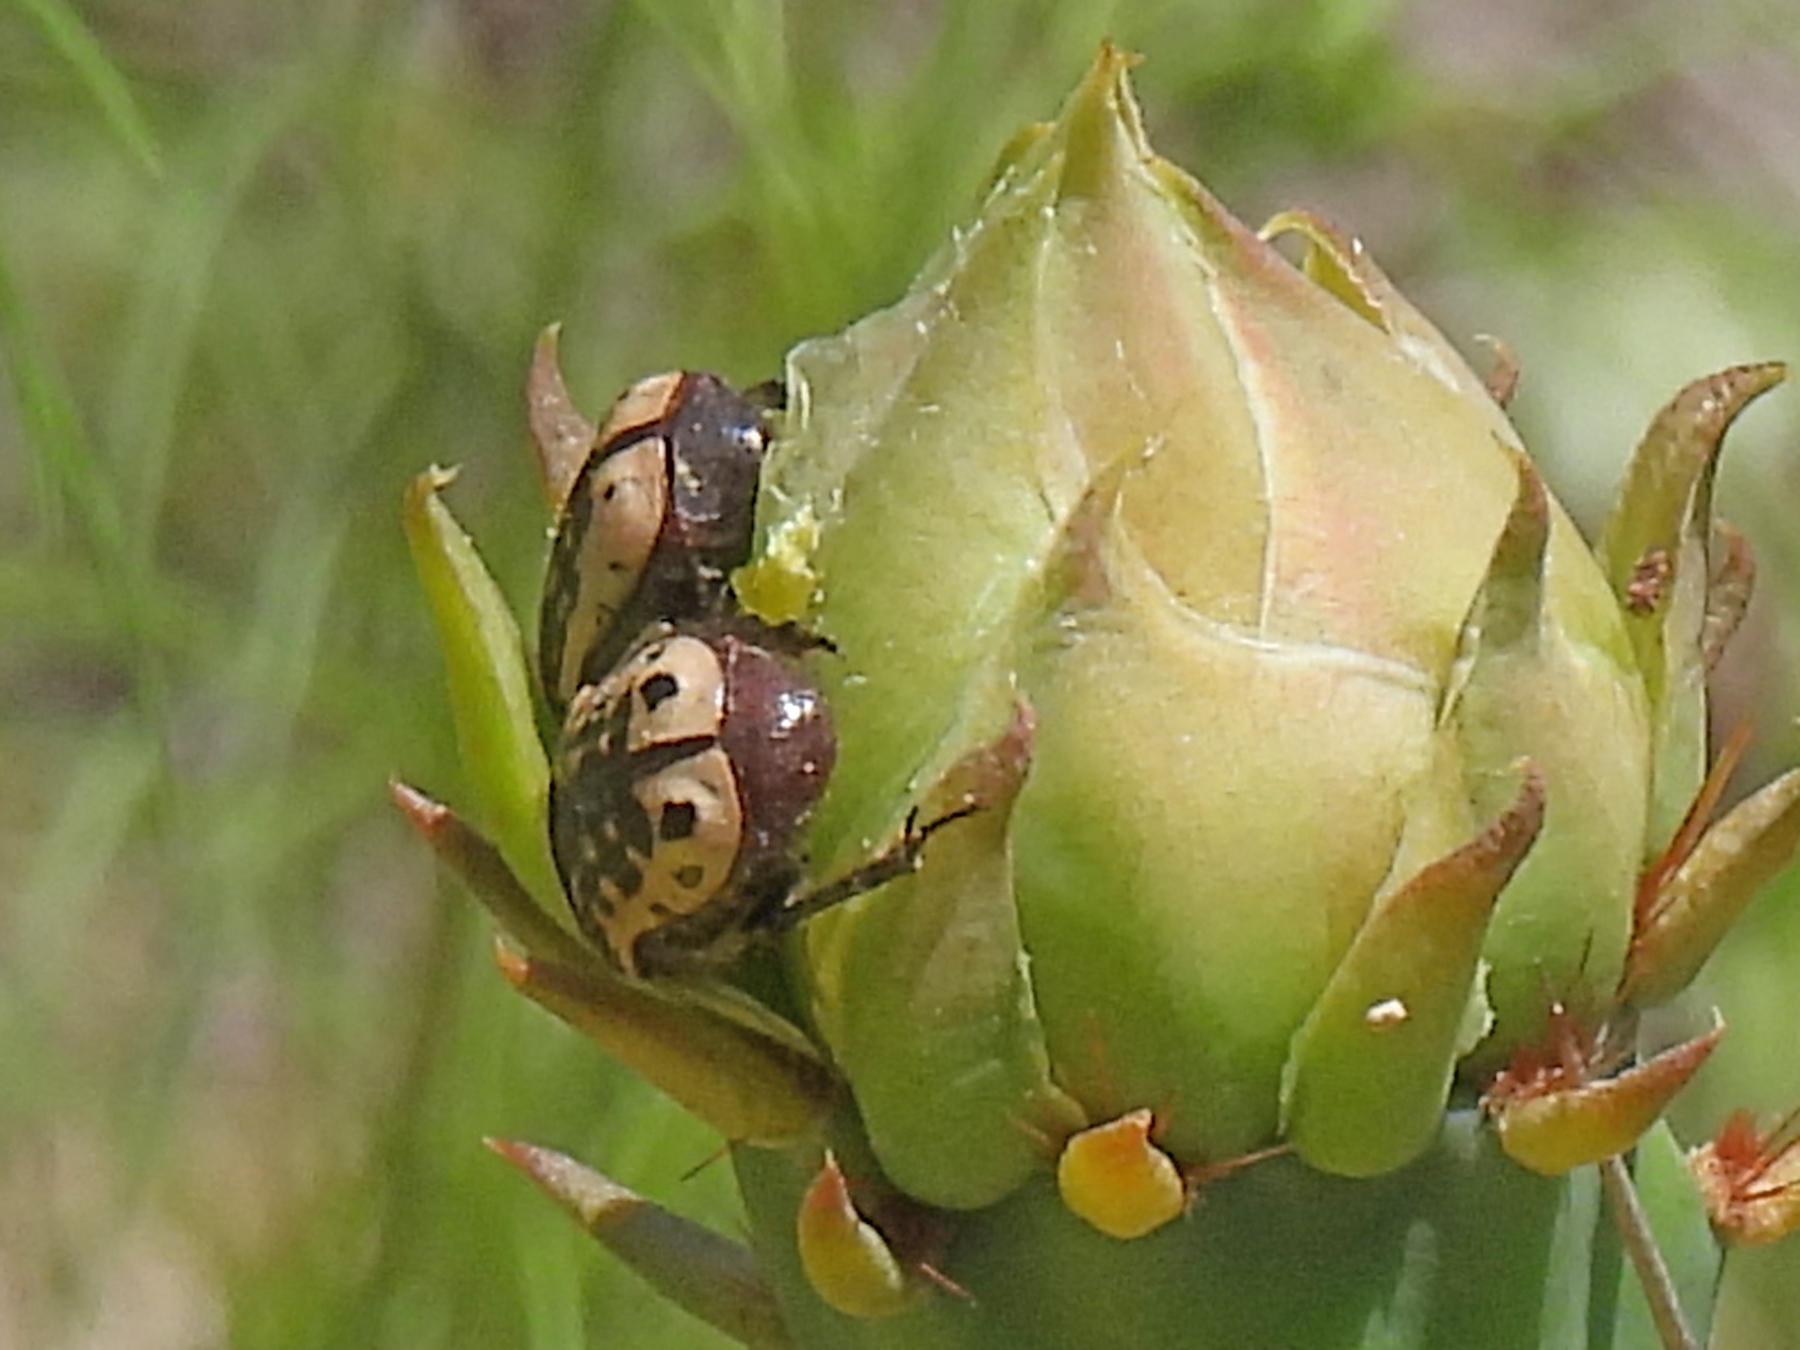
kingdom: Animalia
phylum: Arthropoda
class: Insecta
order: Coleoptera
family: Scarabaeidae
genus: Euphoria
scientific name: Euphoria kernii
